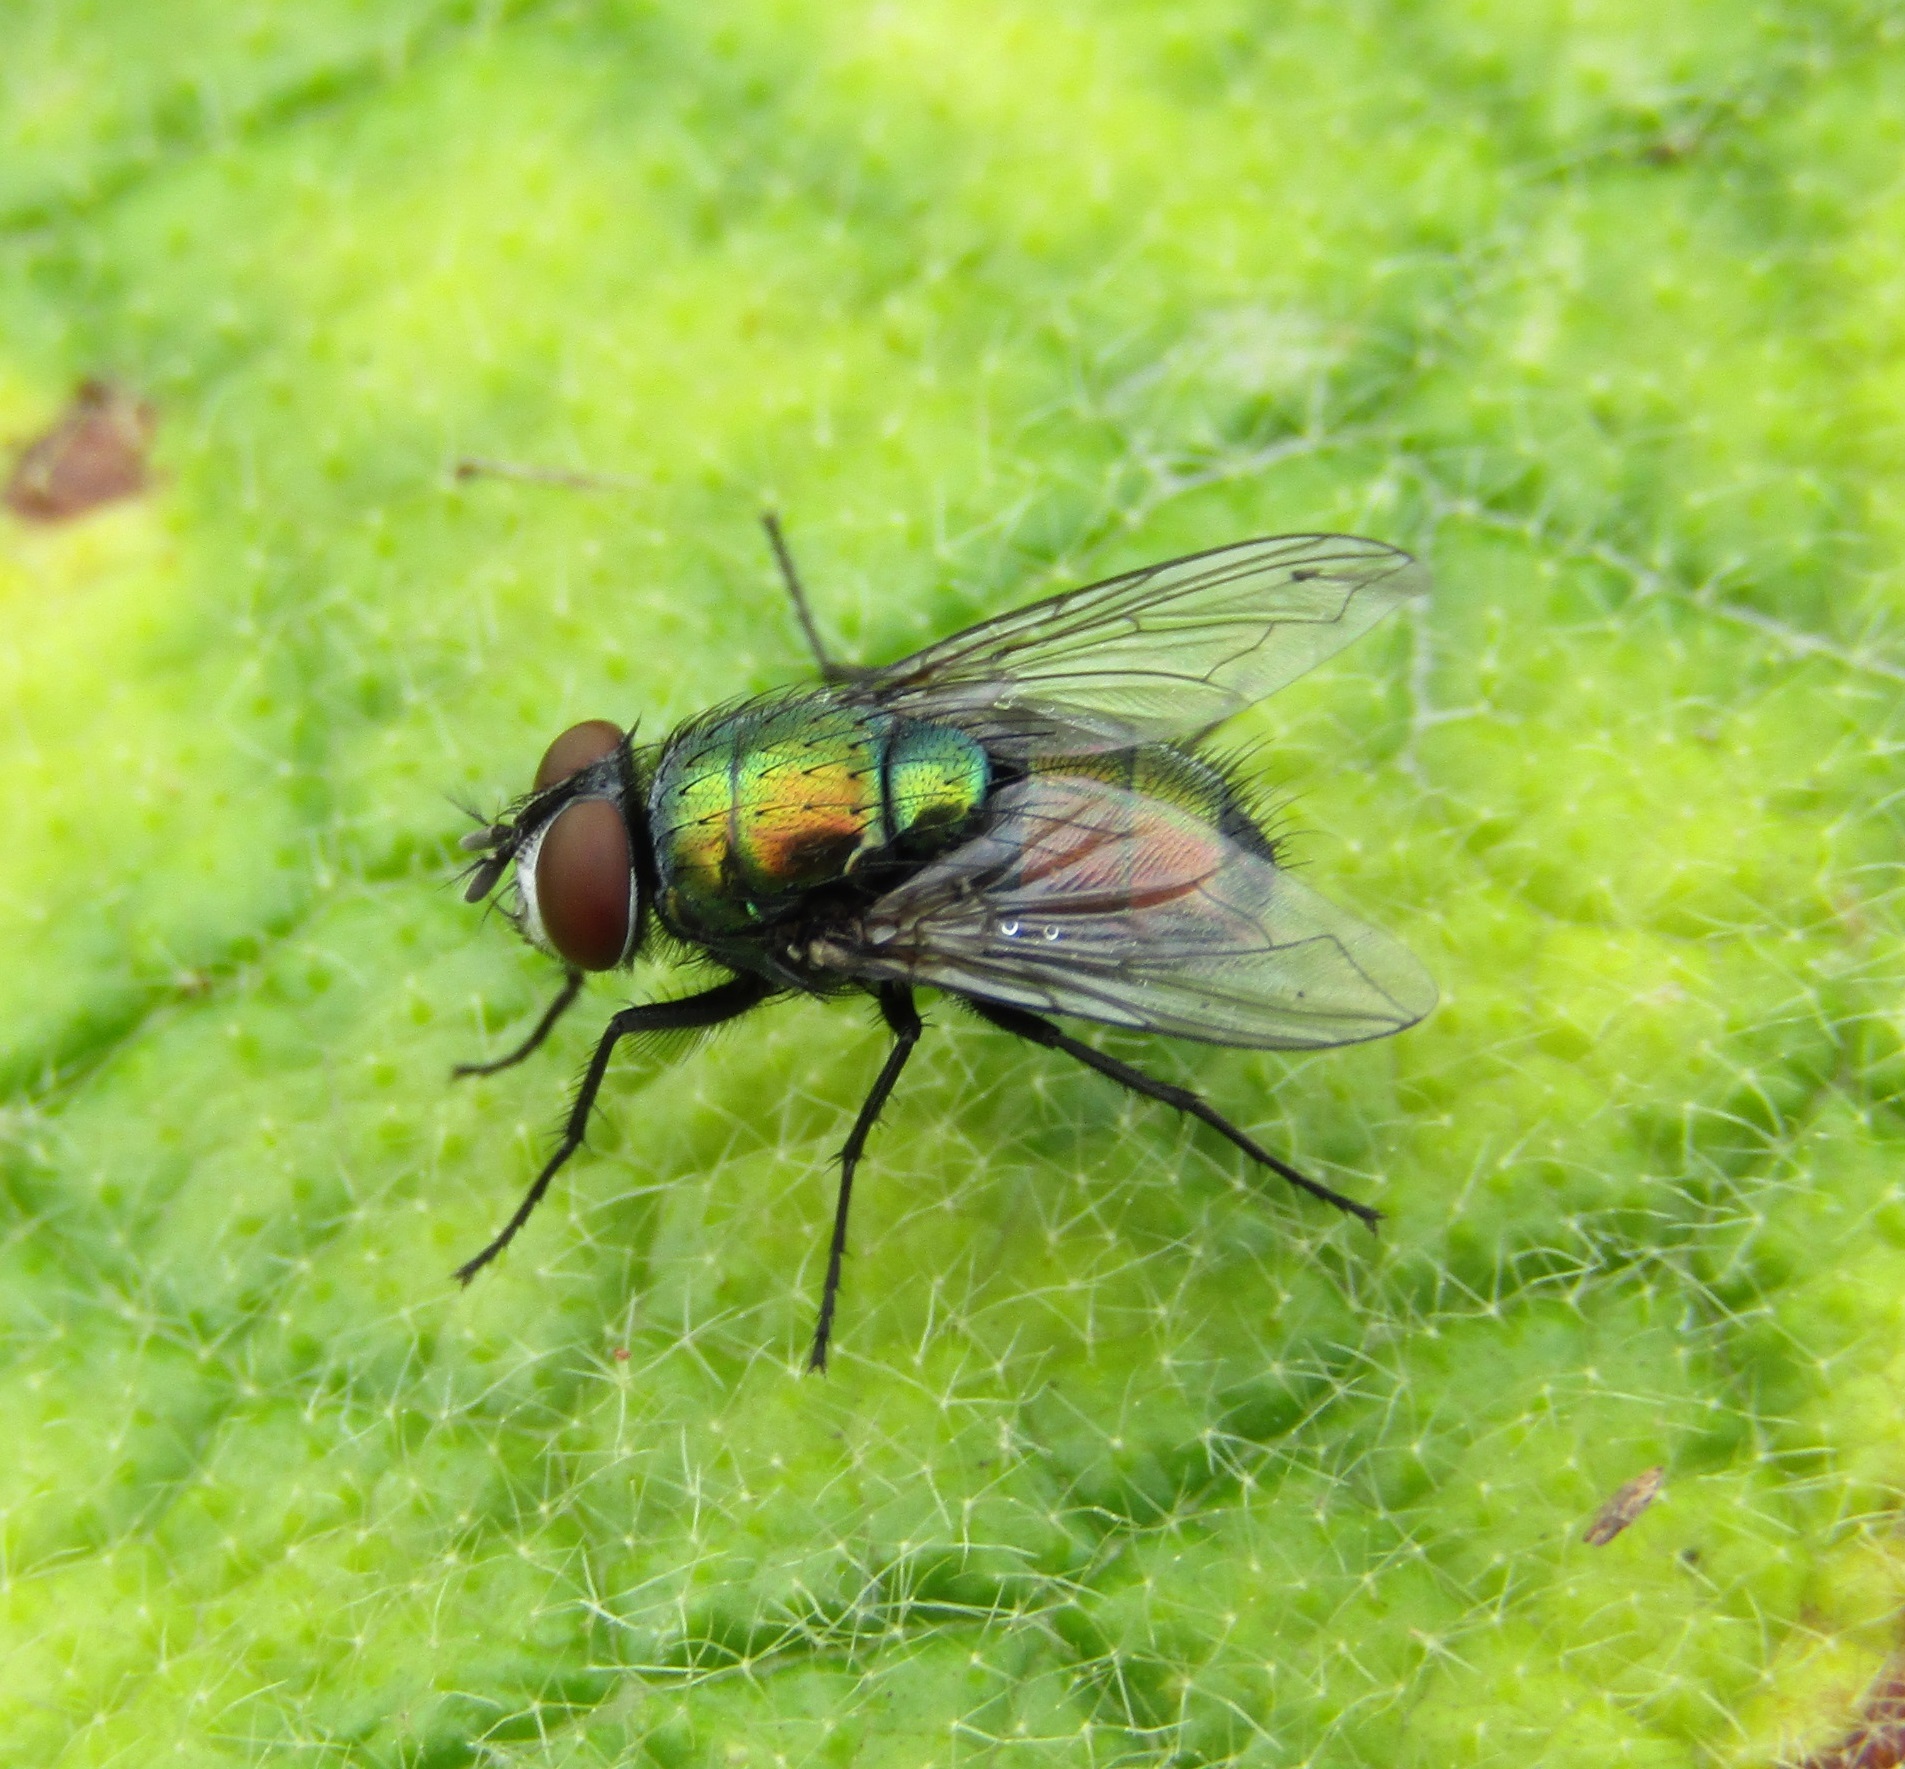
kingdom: Animalia
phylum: Arthropoda
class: Insecta
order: Diptera
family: Calliphoridae
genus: Lucilia
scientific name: Lucilia sericata
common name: Blow fly
